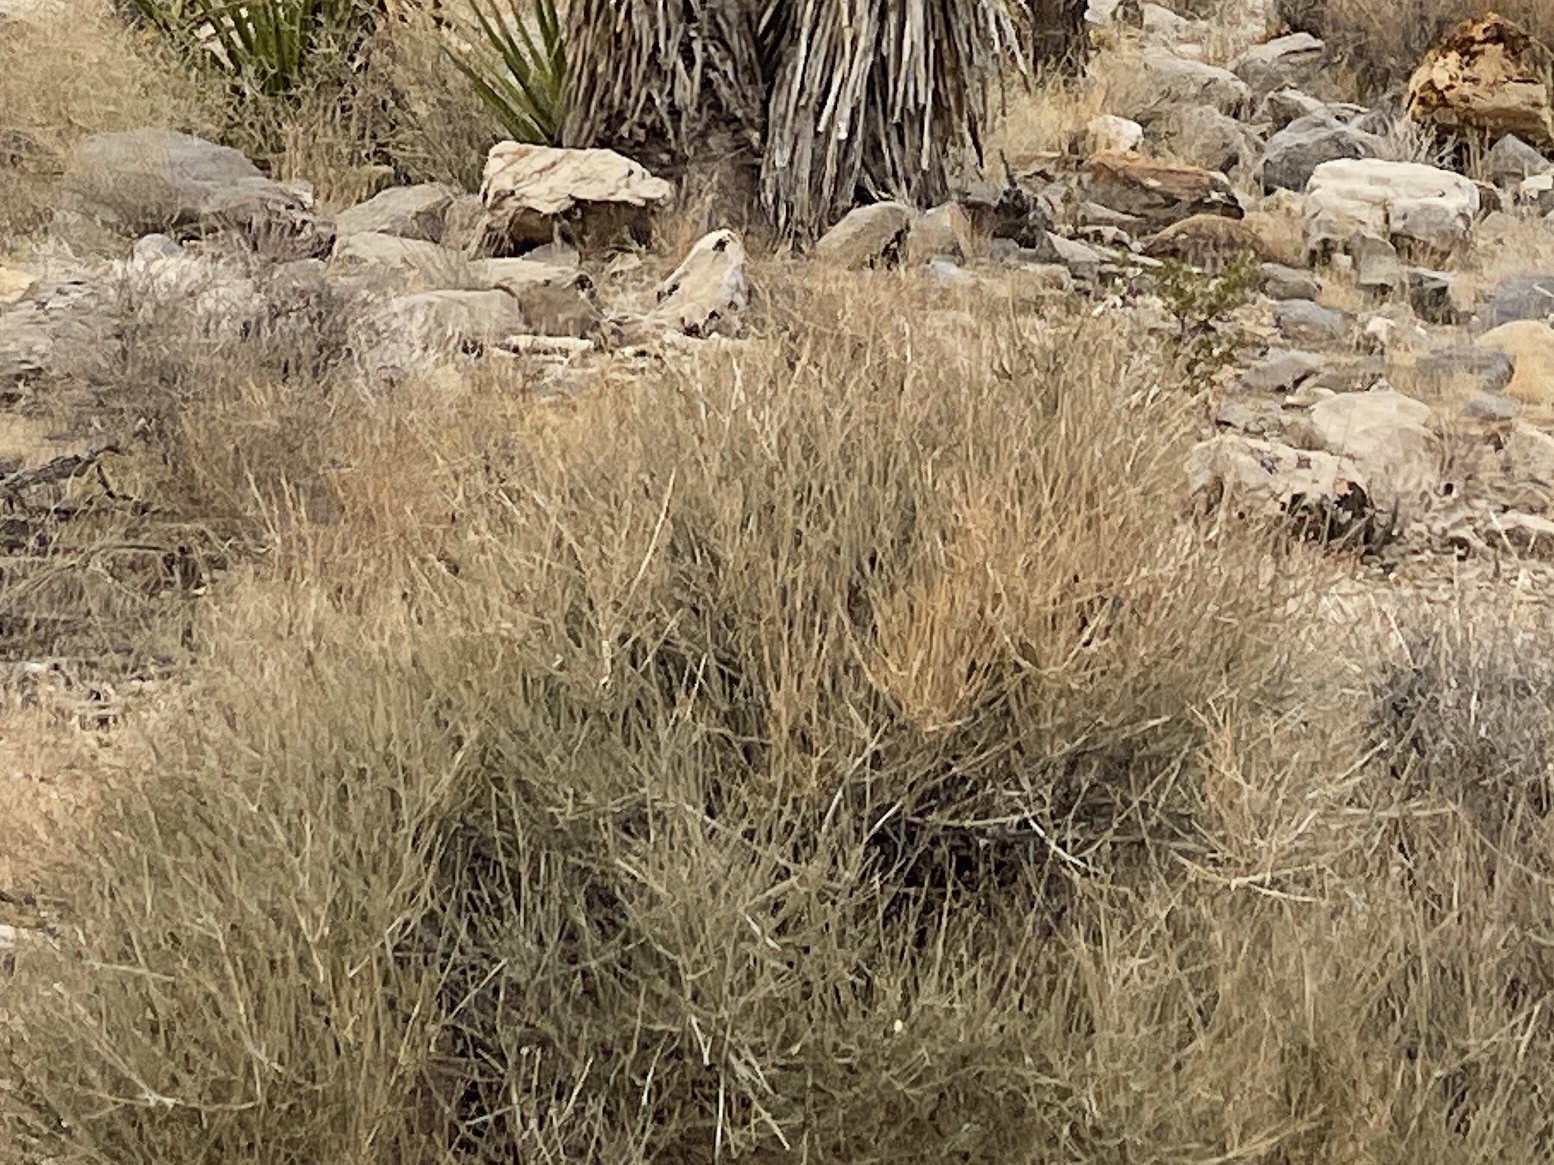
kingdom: Plantae
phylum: Tracheophyta
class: Gnetopsida
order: Ephedrales
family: Ephedraceae
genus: Ephedra
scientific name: Ephedra nevadensis
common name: Gray ephedra
